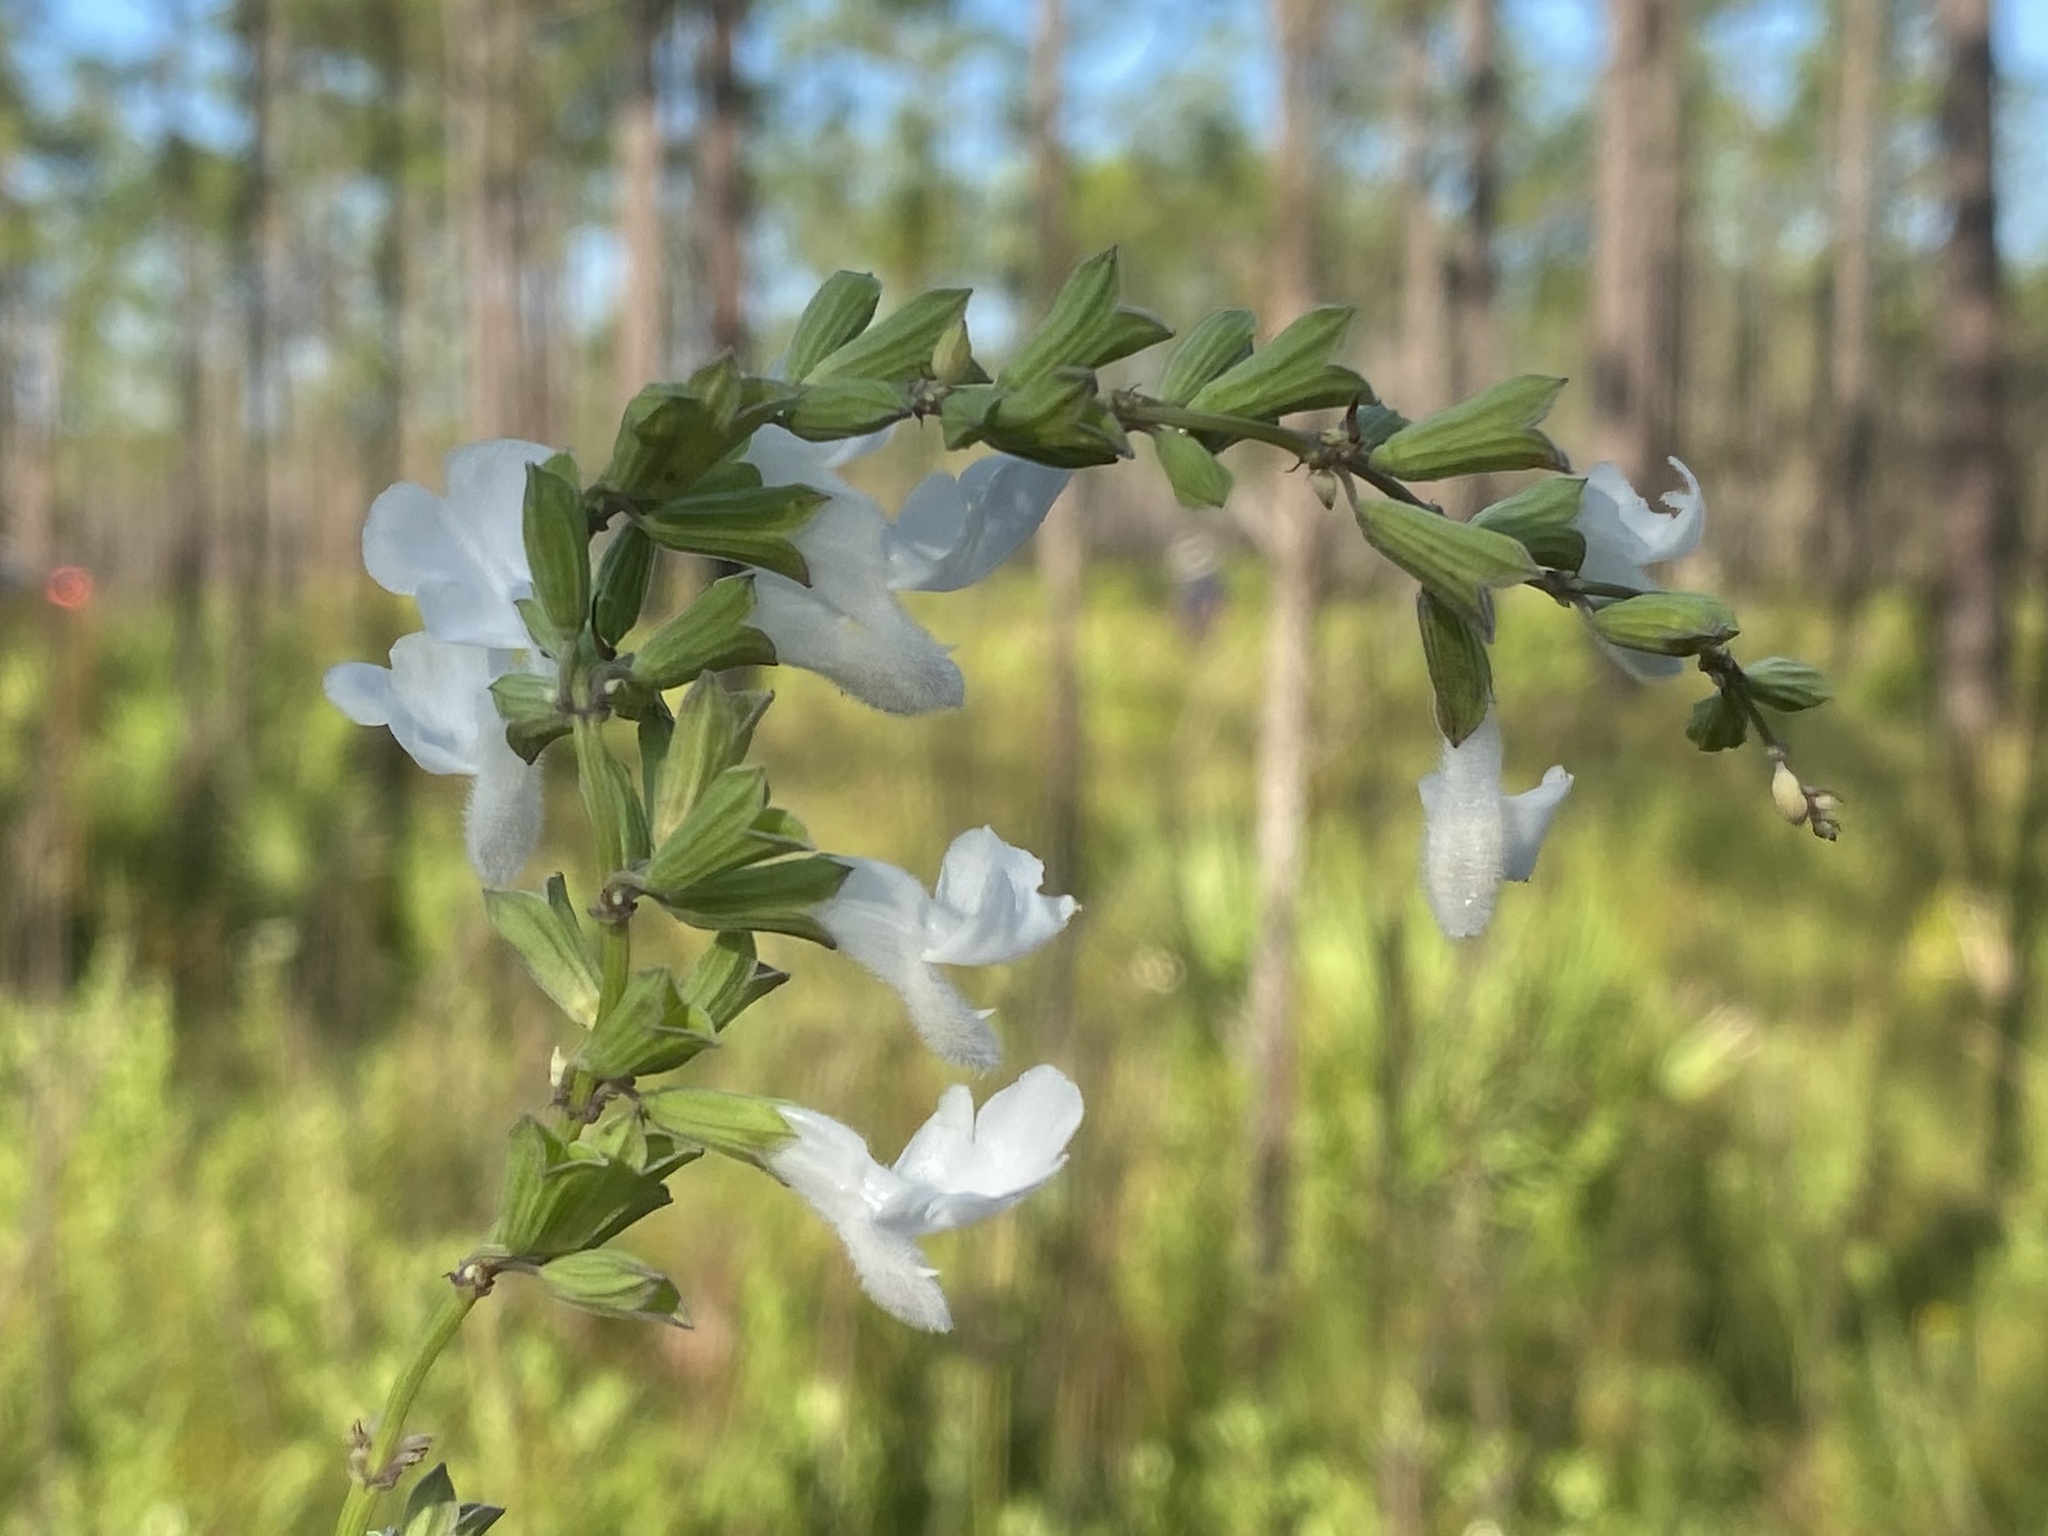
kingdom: Plantae
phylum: Tracheophyta
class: Magnoliopsida
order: Lamiales
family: Lamiaceae
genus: Salvia
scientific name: Salvia azurea
